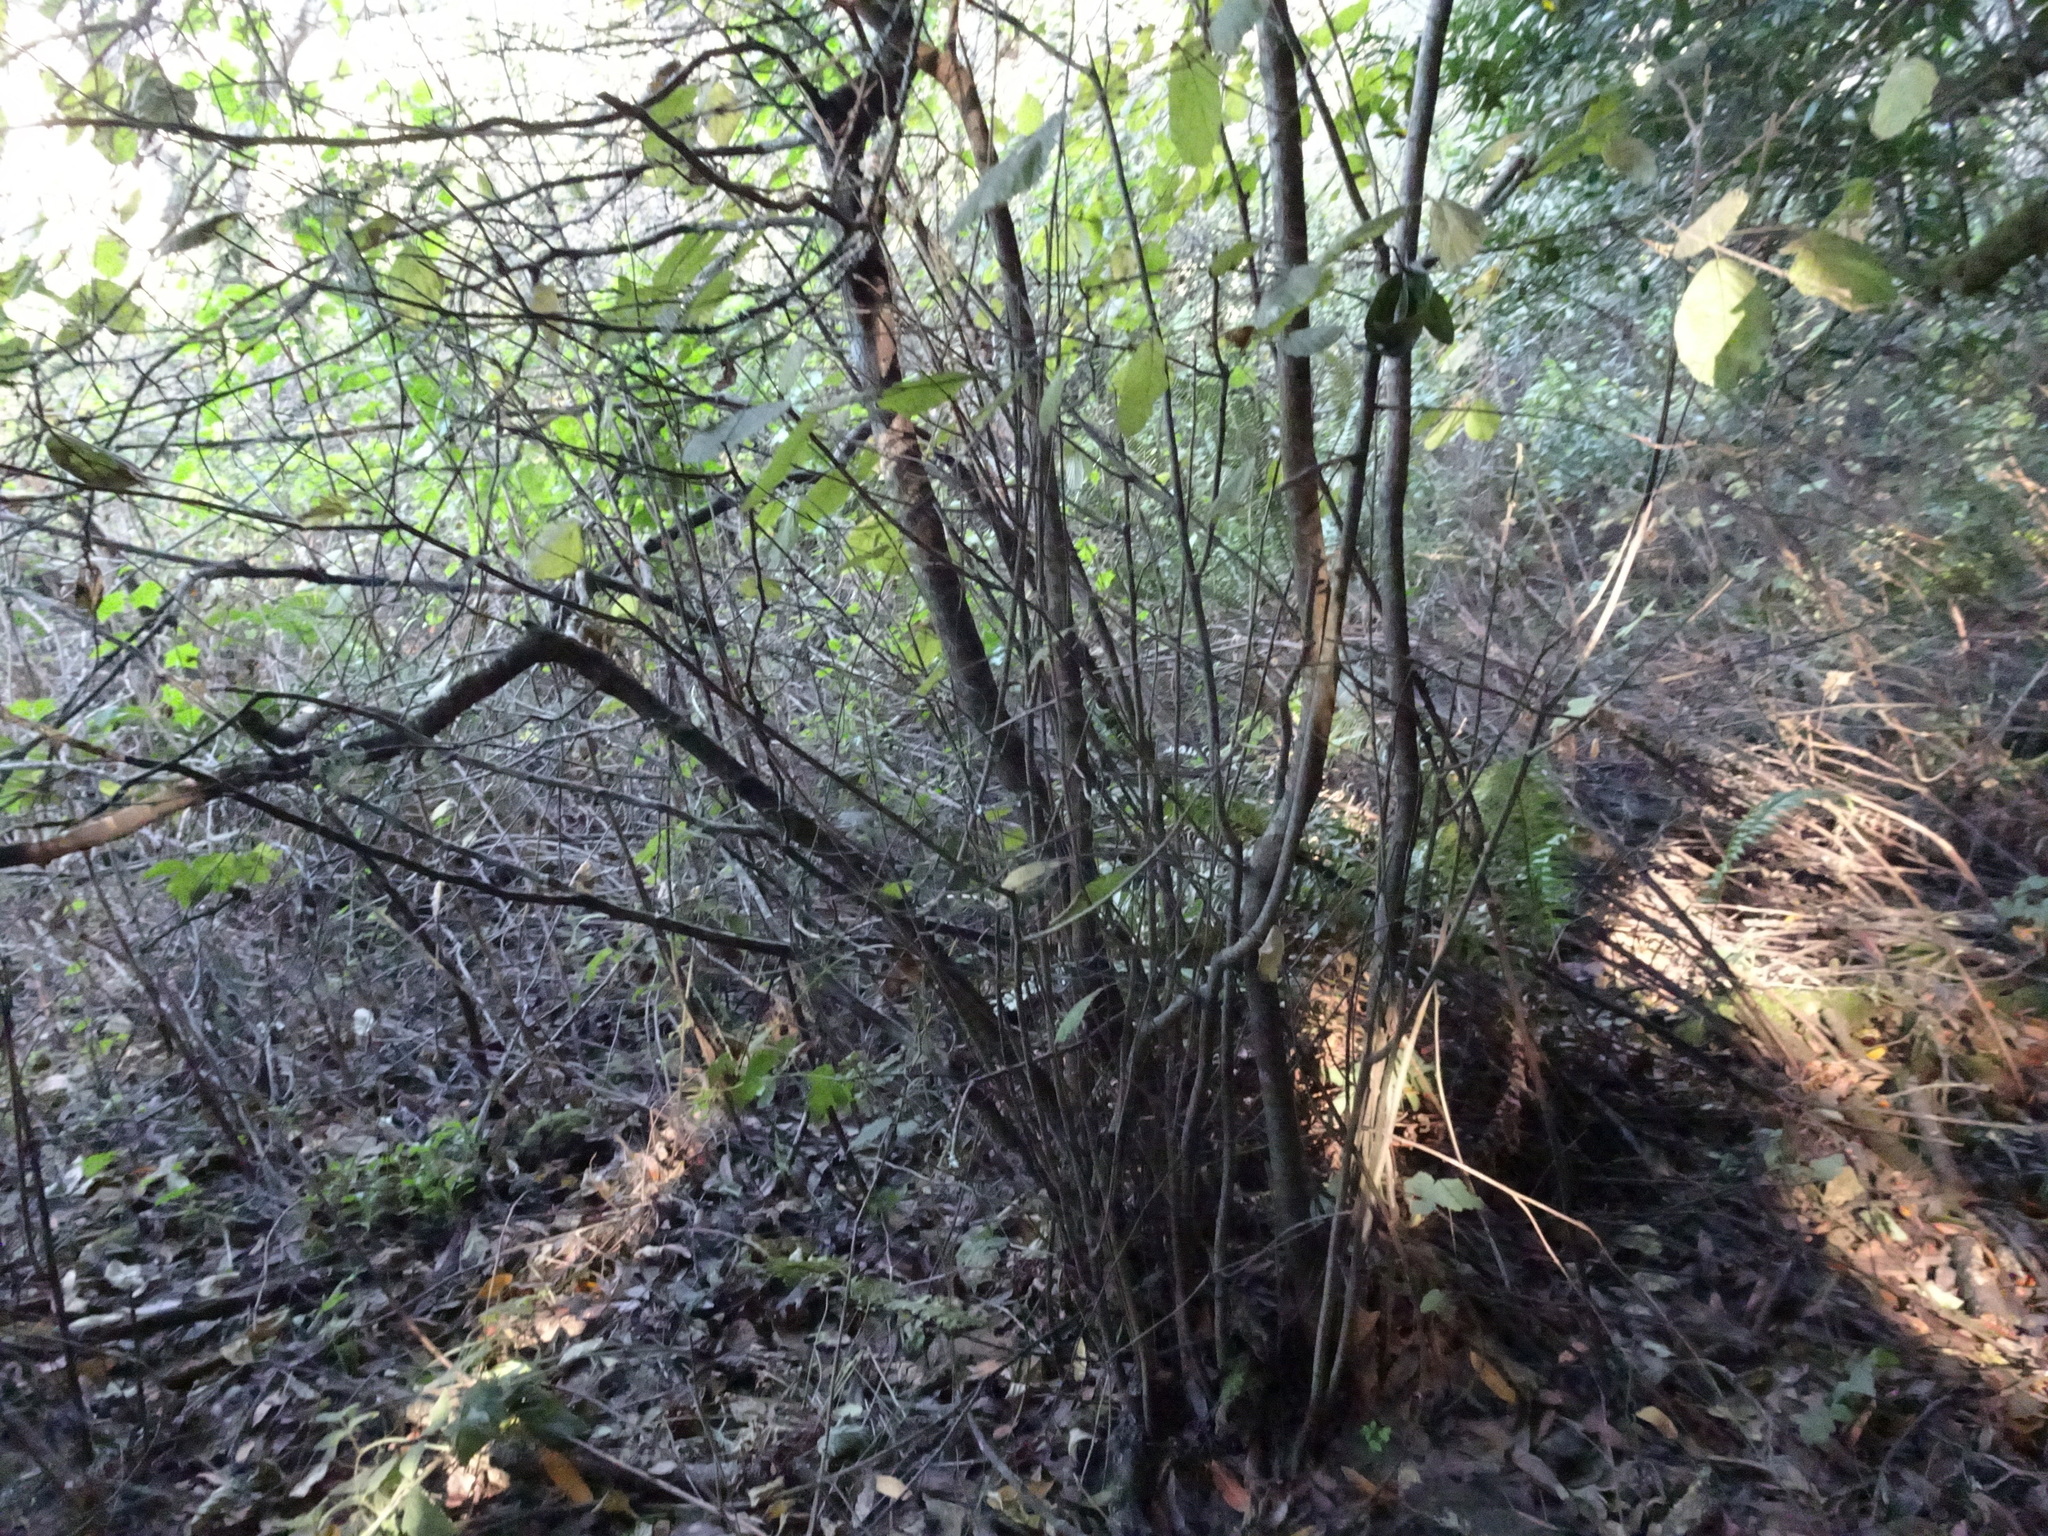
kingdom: Plantae
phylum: Tracheophyta
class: Magnoliopsida
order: Fagales
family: Betulaceae
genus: Corylus
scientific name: Corylus cornuta
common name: Beaked hazel
